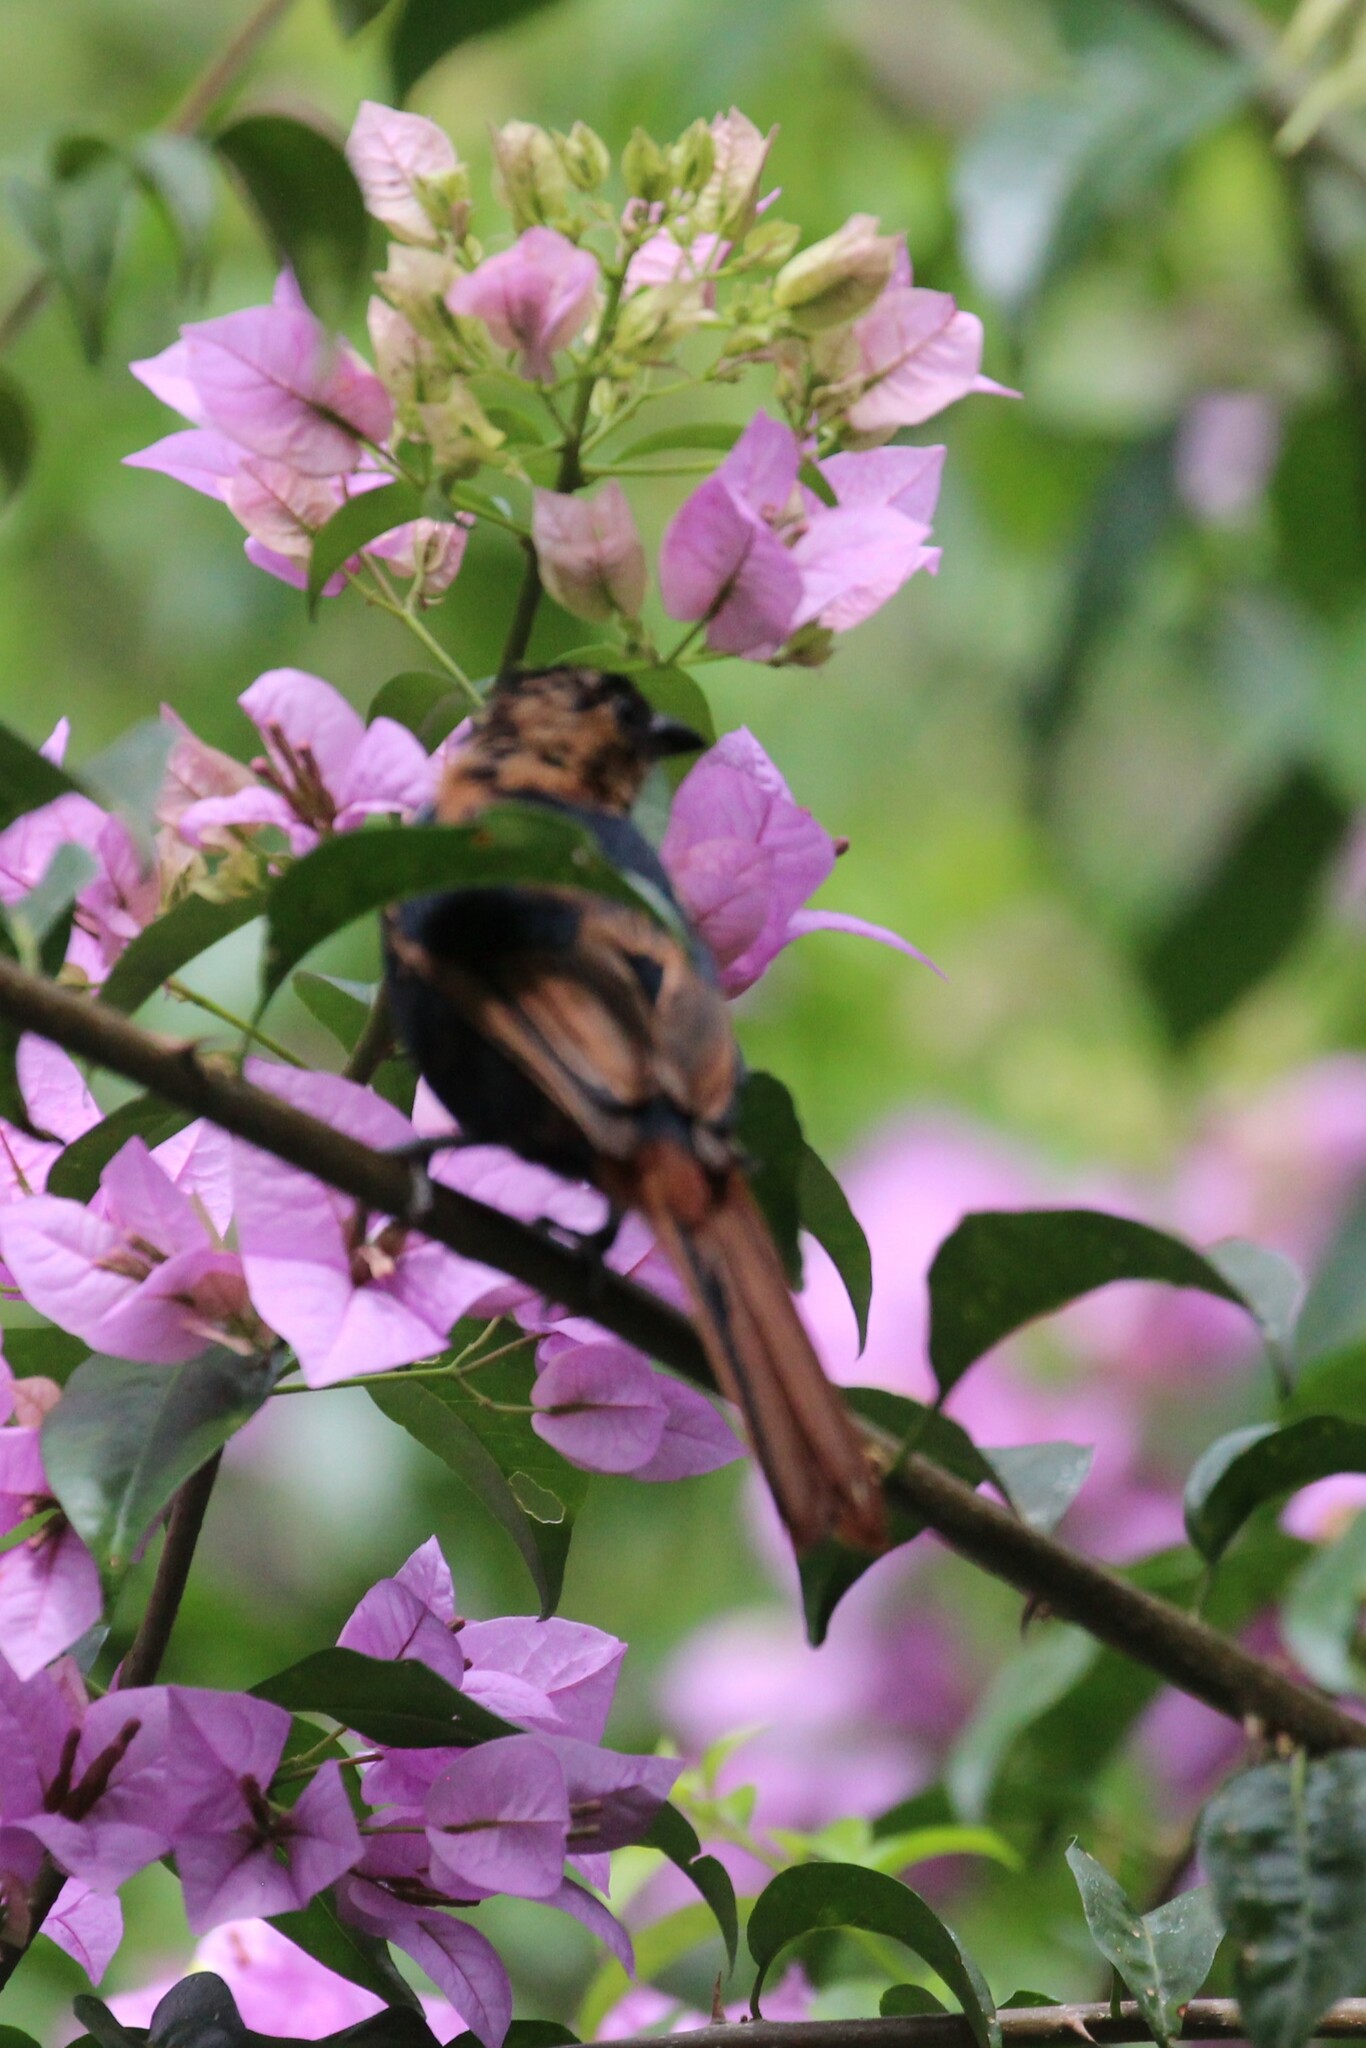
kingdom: Animalia
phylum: Chordata
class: Aves
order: Passeriformes
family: Thraupidae
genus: Tachyphonus
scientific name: Tachyphonus rufus
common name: White-lined tanager
